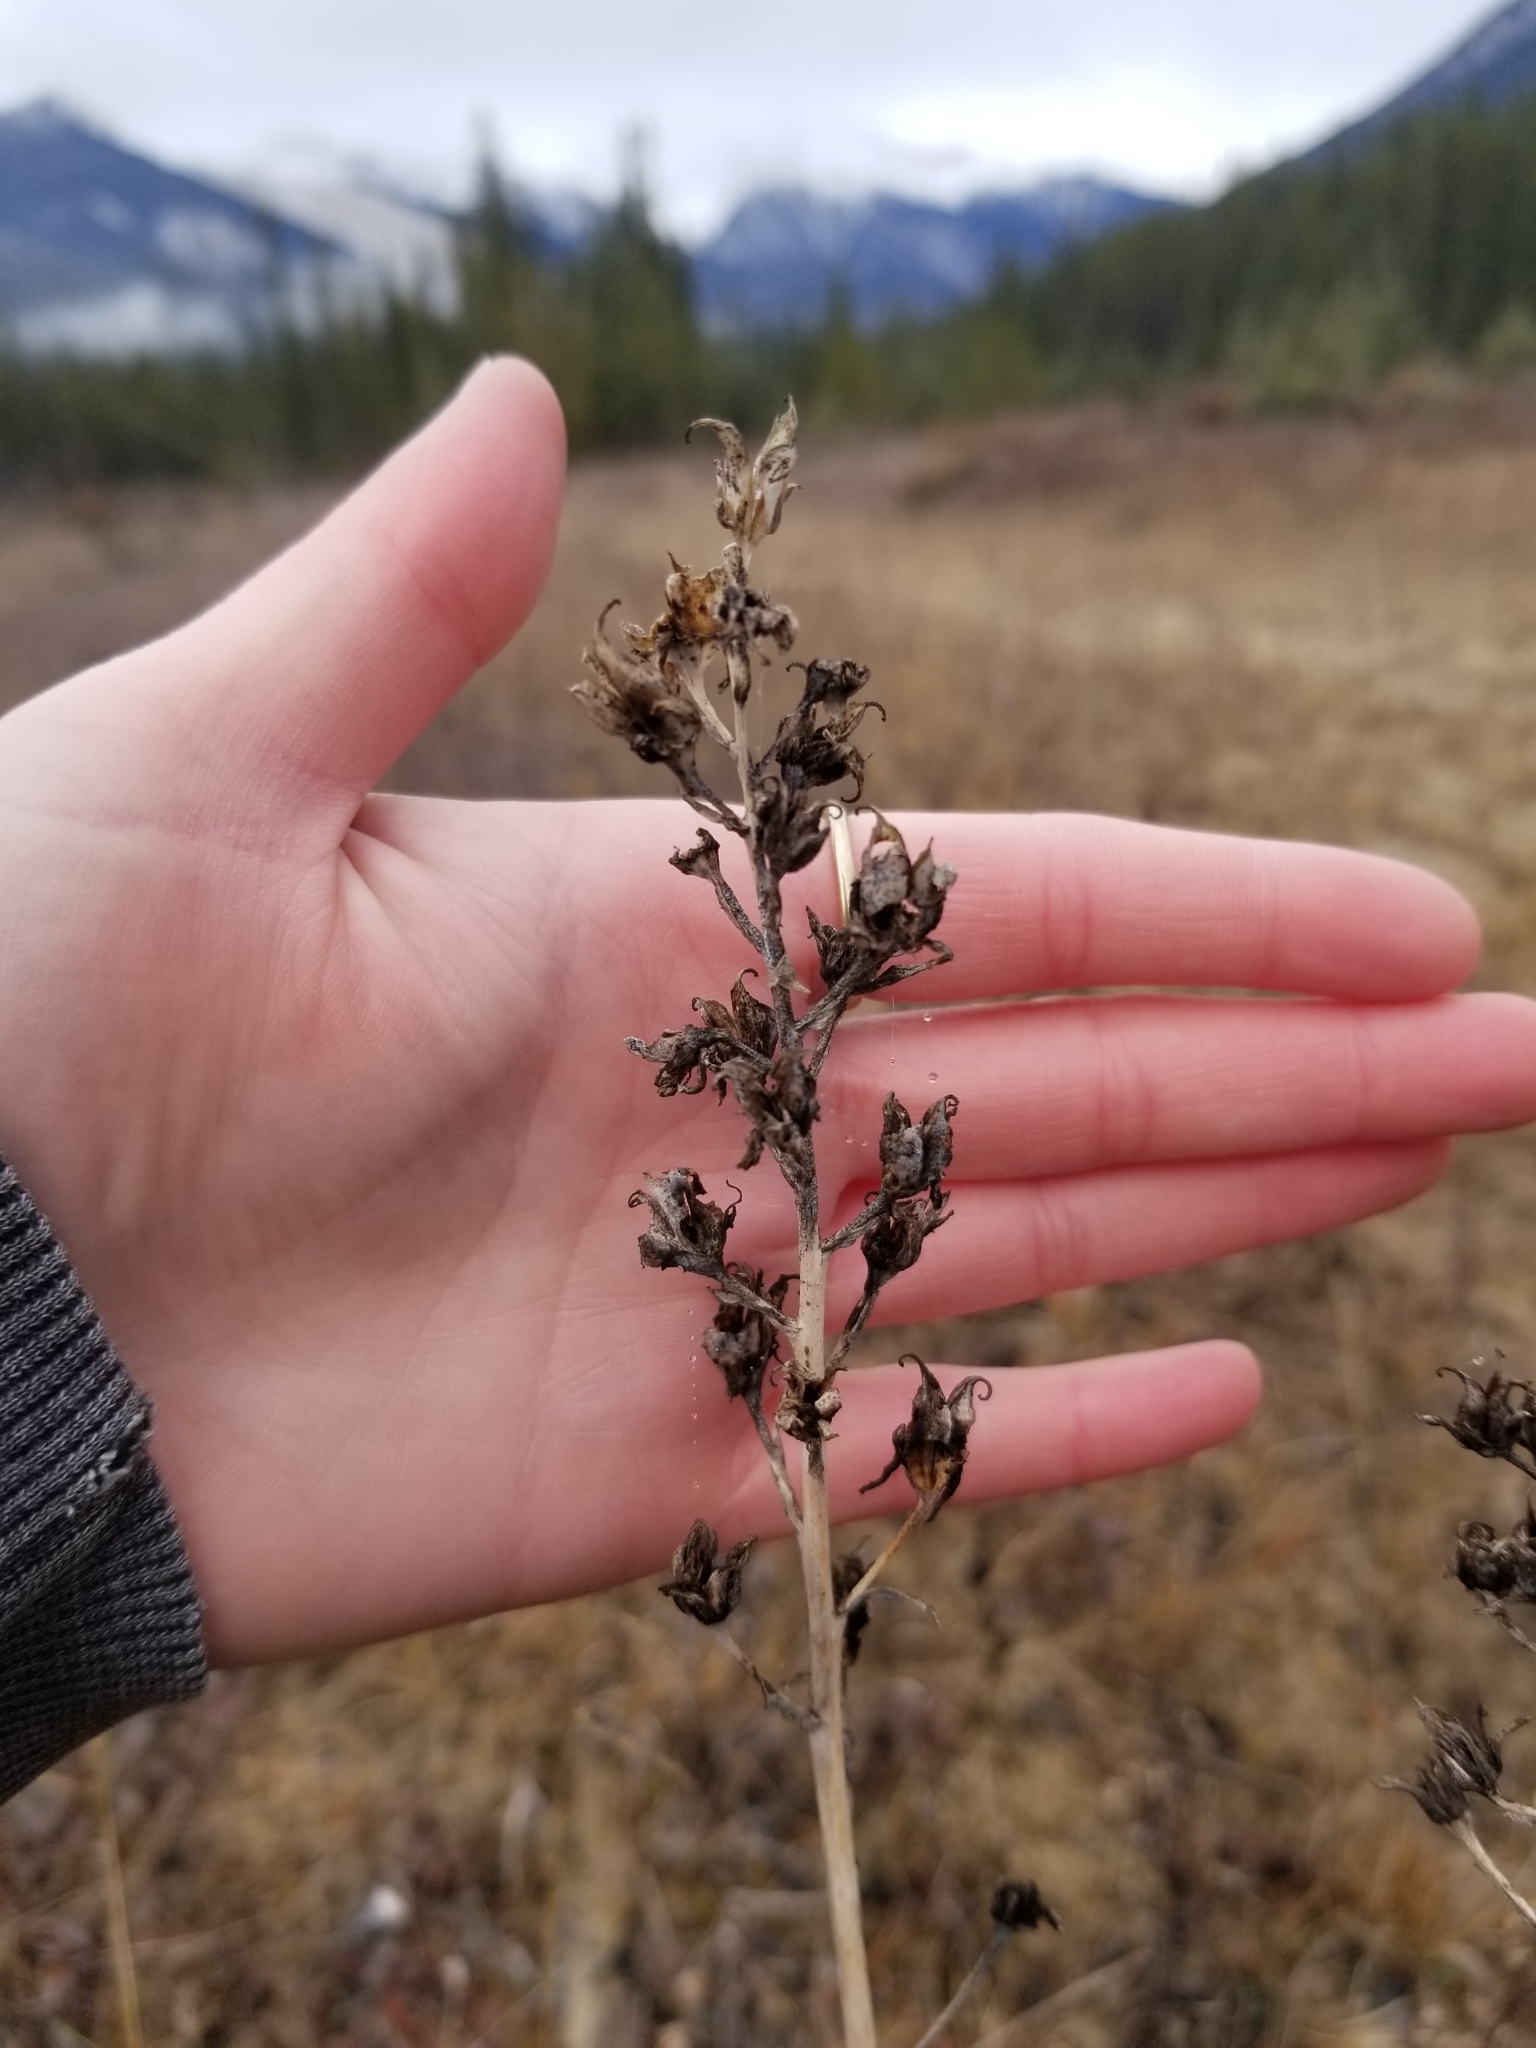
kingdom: Plantae
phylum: Tracheophyta
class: Liliopsida
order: Liliales
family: Melanthiaceae
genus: Anticlea
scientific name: Anticlea elegans
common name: Mountain death camas
